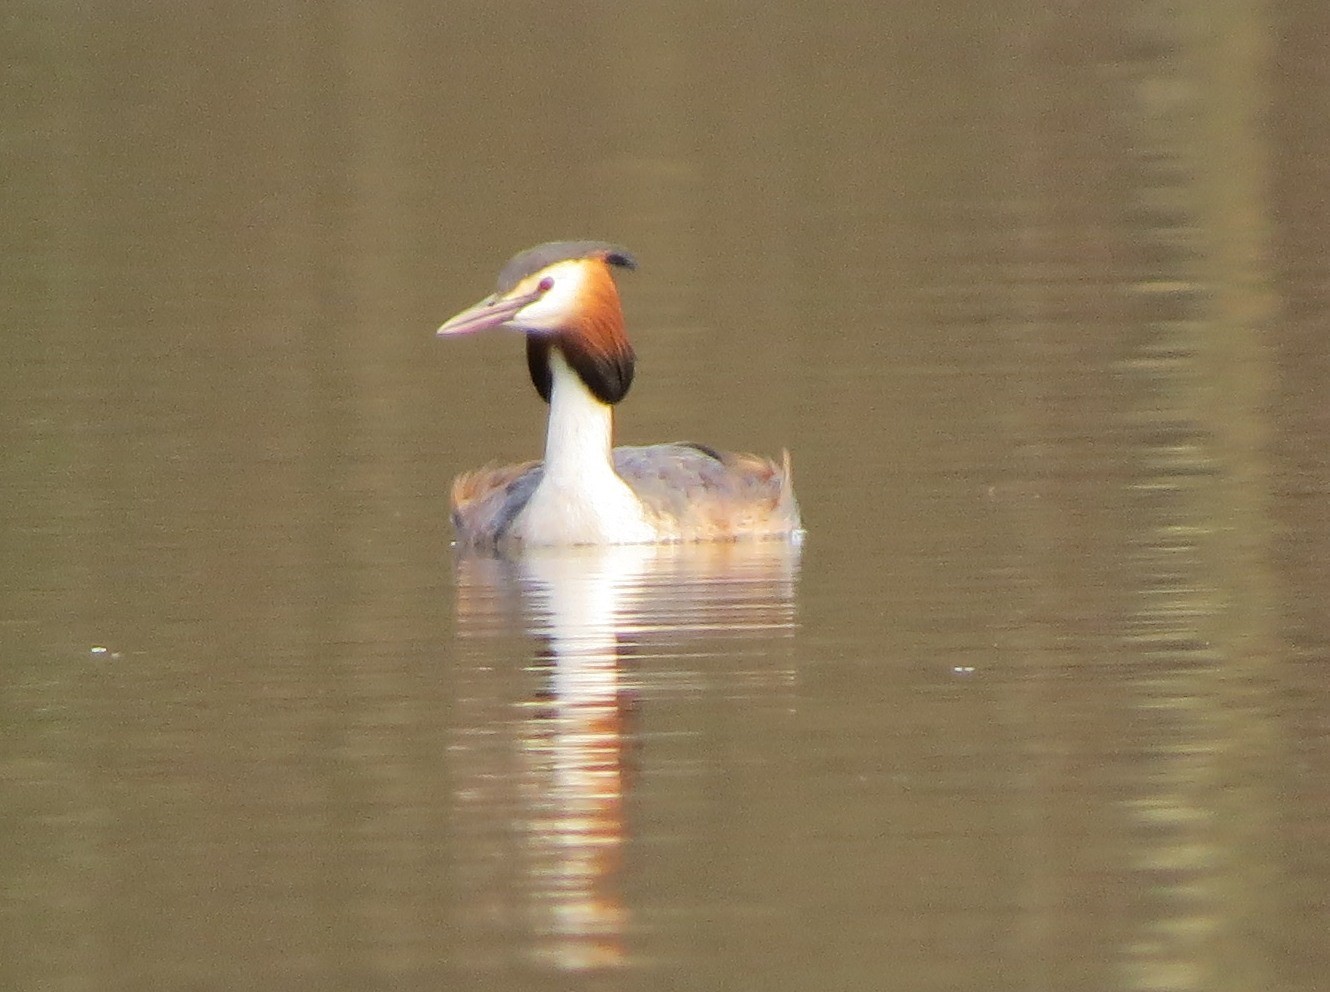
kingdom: Animalia
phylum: Chordata
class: Aves
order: Podicipediformes
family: Podicipedidae
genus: Podiceps
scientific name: Podiceps cristatus
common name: Great crested grebe
